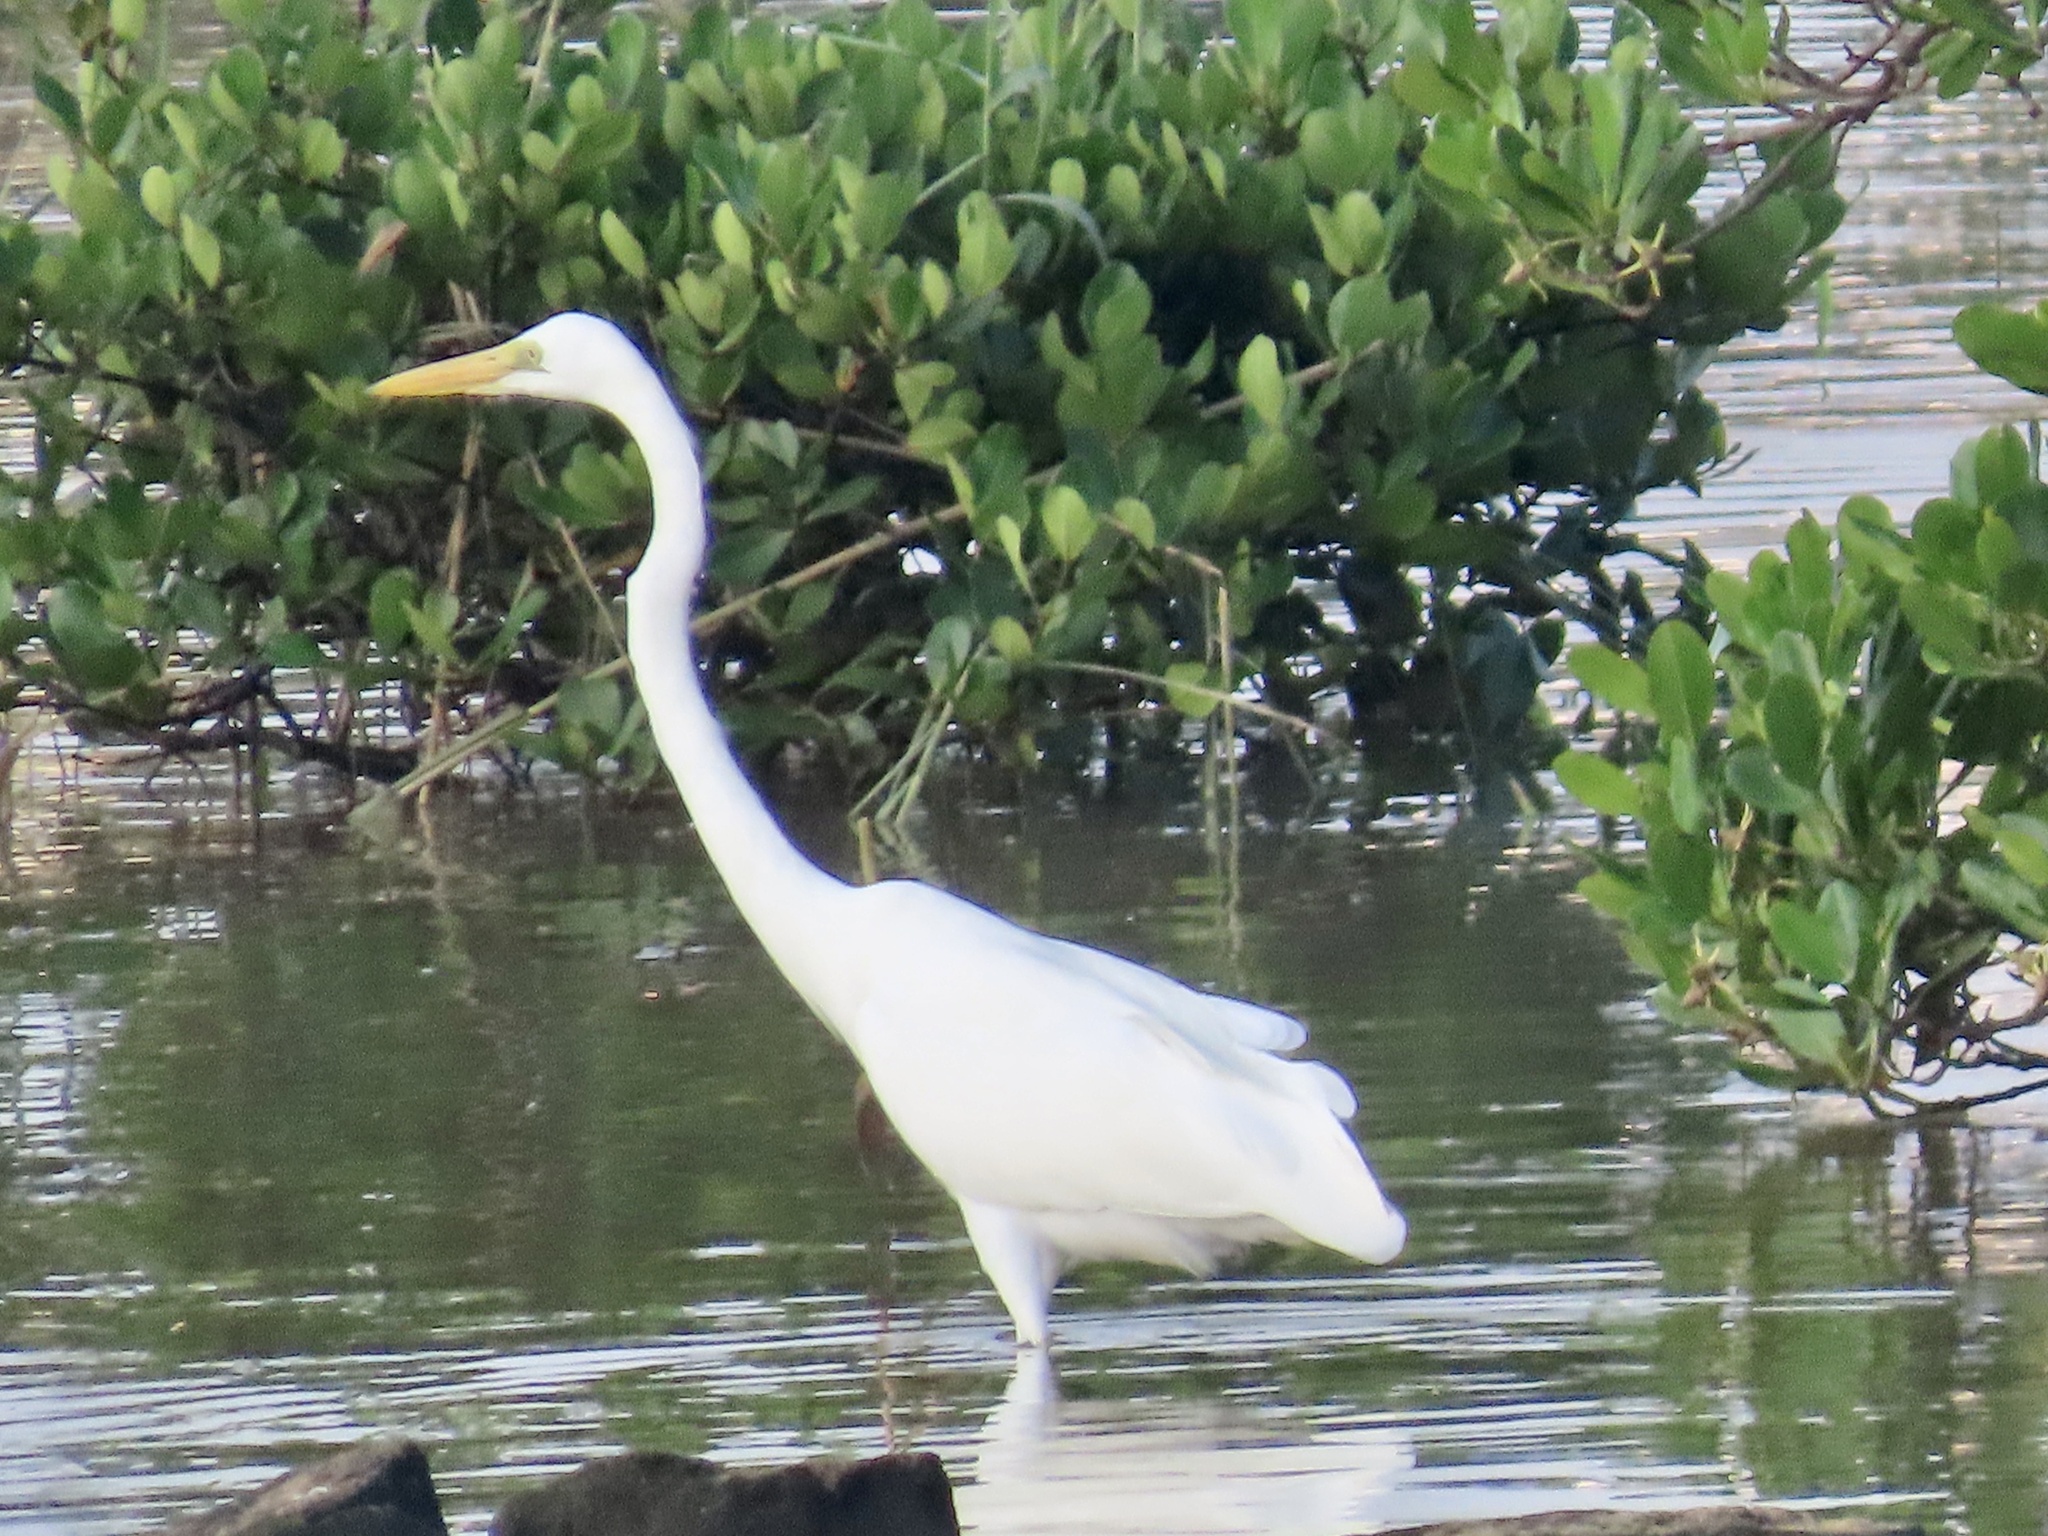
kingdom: Animalia
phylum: Chordata
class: Aves
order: Pelecaniformes
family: Ardeidae
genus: Ardea
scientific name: Ardea alba
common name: Great egret
